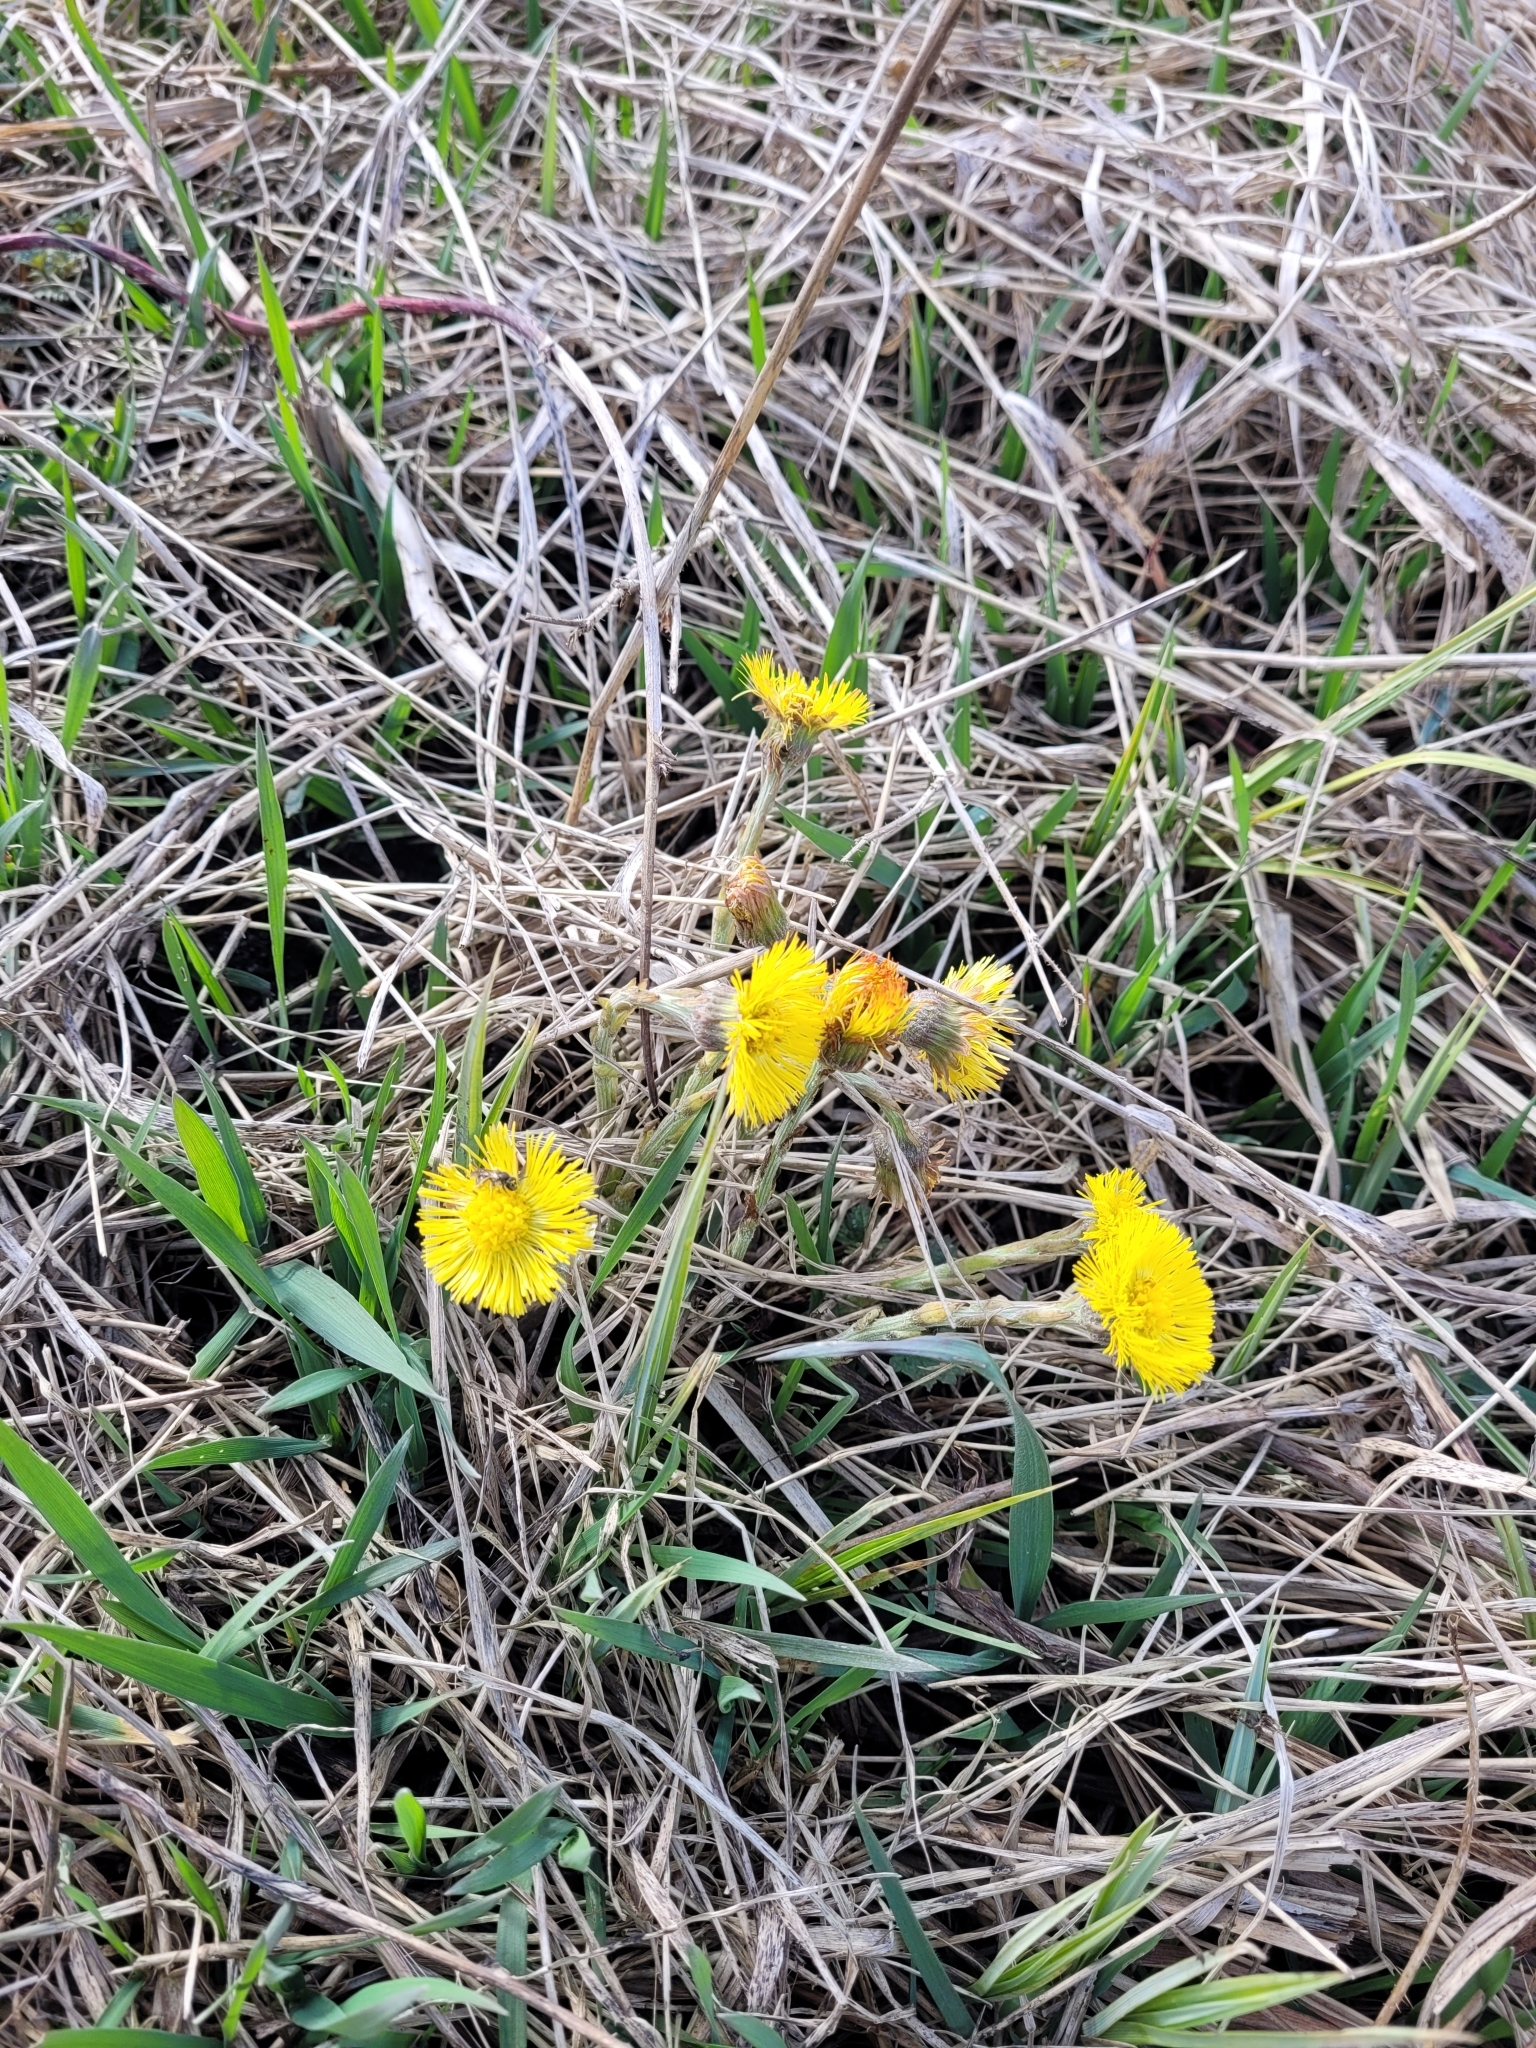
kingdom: Plantae
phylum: Tracheophyta
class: Magnoliopsida
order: Asterales
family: Asteraceae
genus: Tussilago
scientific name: Tussilago farfara
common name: Coltsfoot
